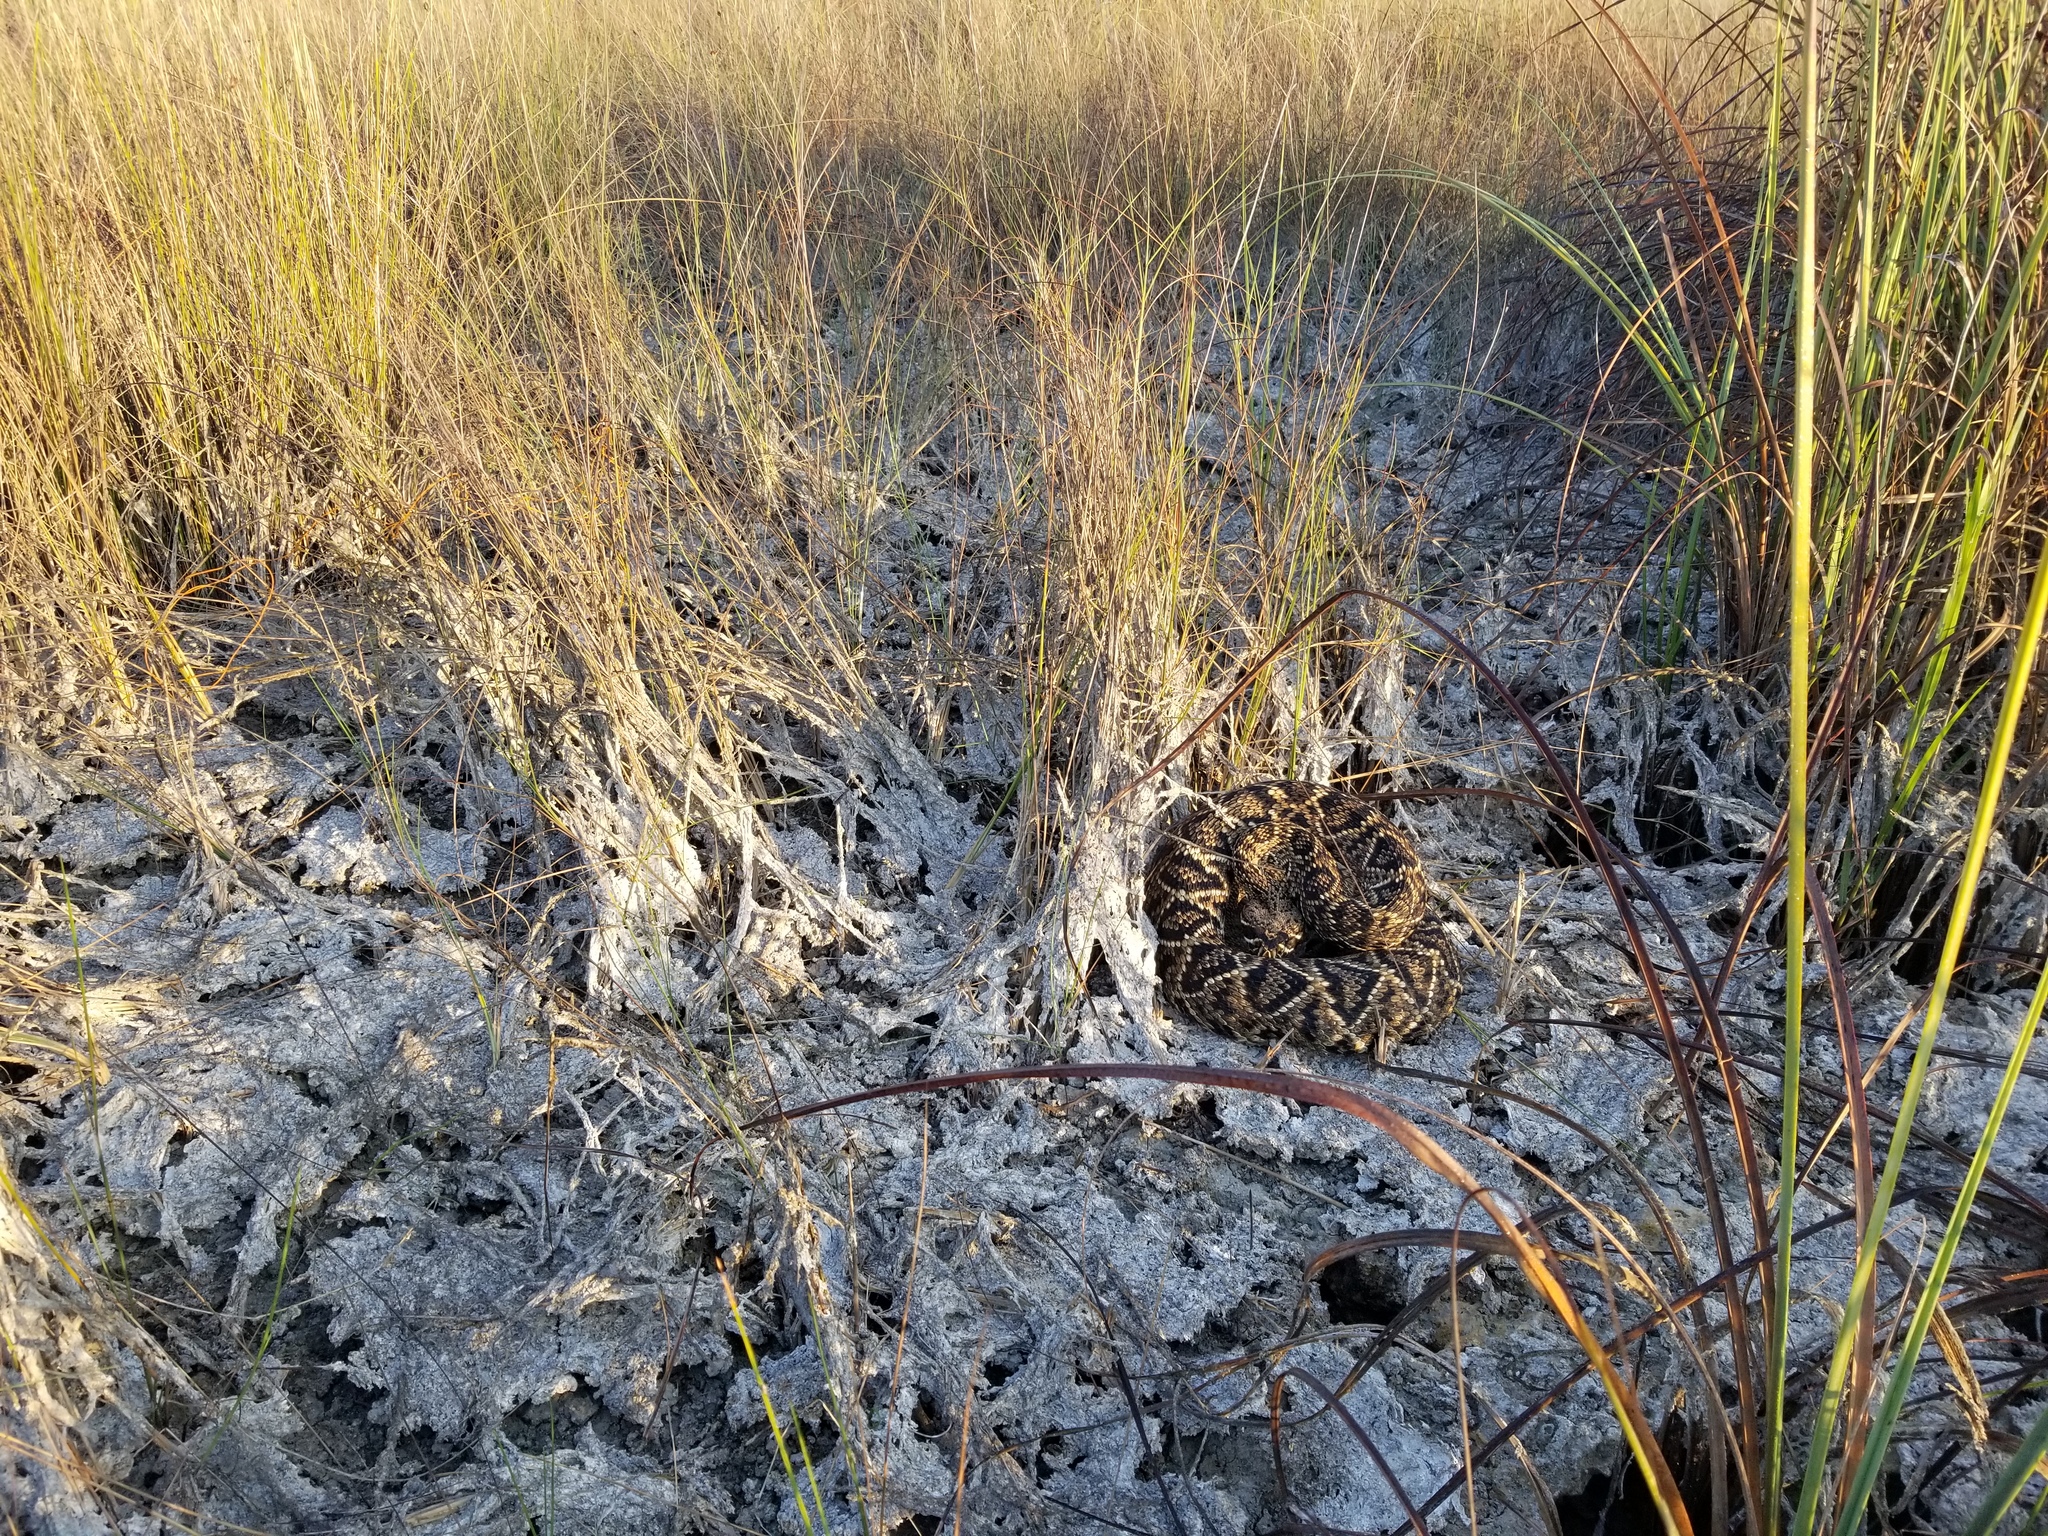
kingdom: Animalia
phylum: Chordata
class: Squamata
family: Viperidae
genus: Crotalus
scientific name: Crotalus adamanteus
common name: Eastern diamondback rattlesnake
